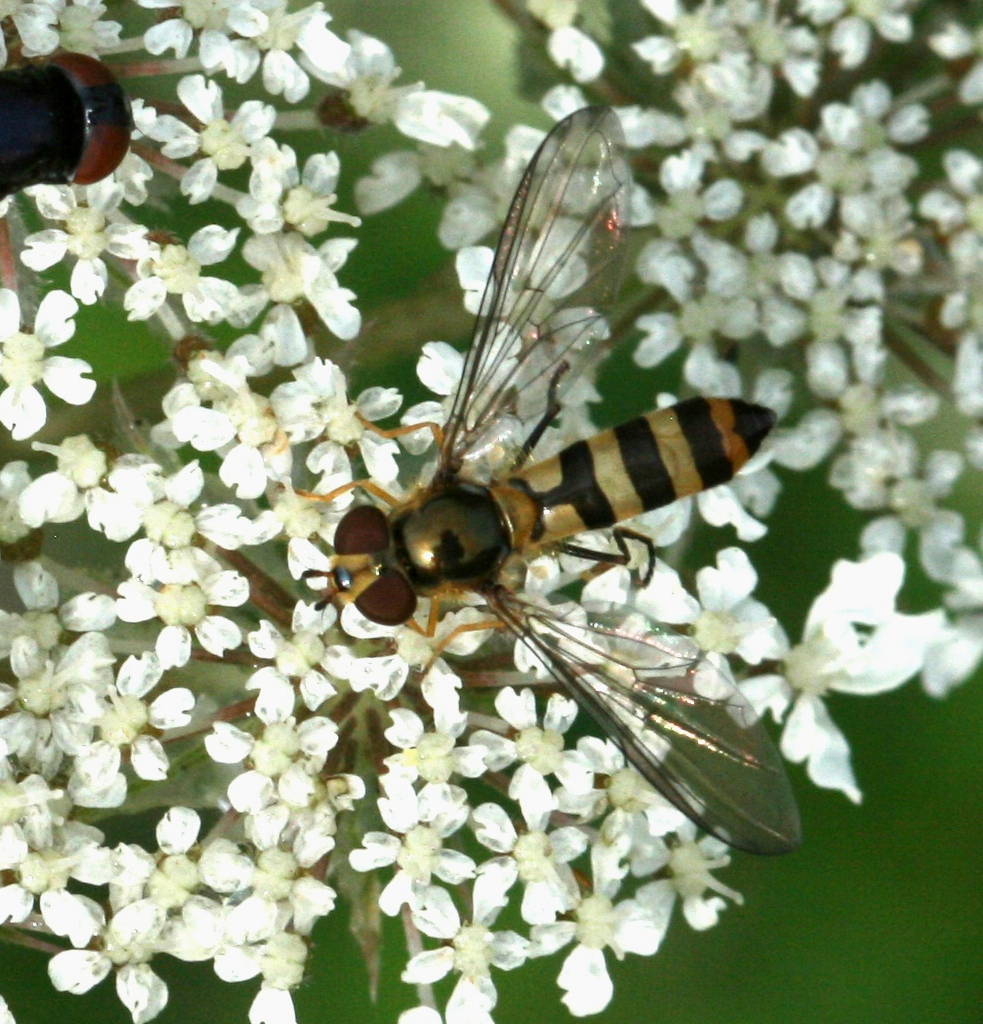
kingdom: Animalia
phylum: Arthropoda
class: Insecta
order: Diptera
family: Syrphidae
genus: Meliscaeva
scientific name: Meliscaeva cinctella
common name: American thintail fly
